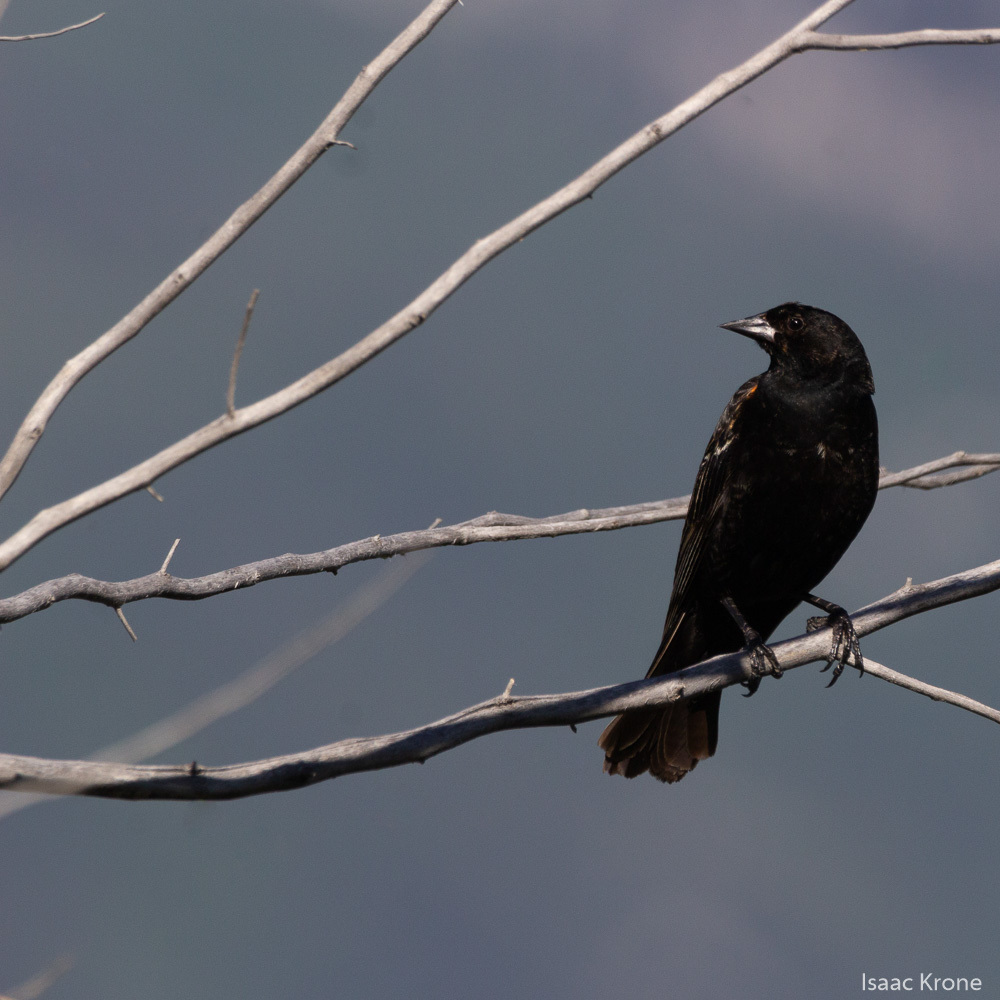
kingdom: Animalia
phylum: Chordata
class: Aves
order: Passeriformes
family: Icteridae
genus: Agelaius
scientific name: Agelaius phoeniceus
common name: Red-winged blackbird
